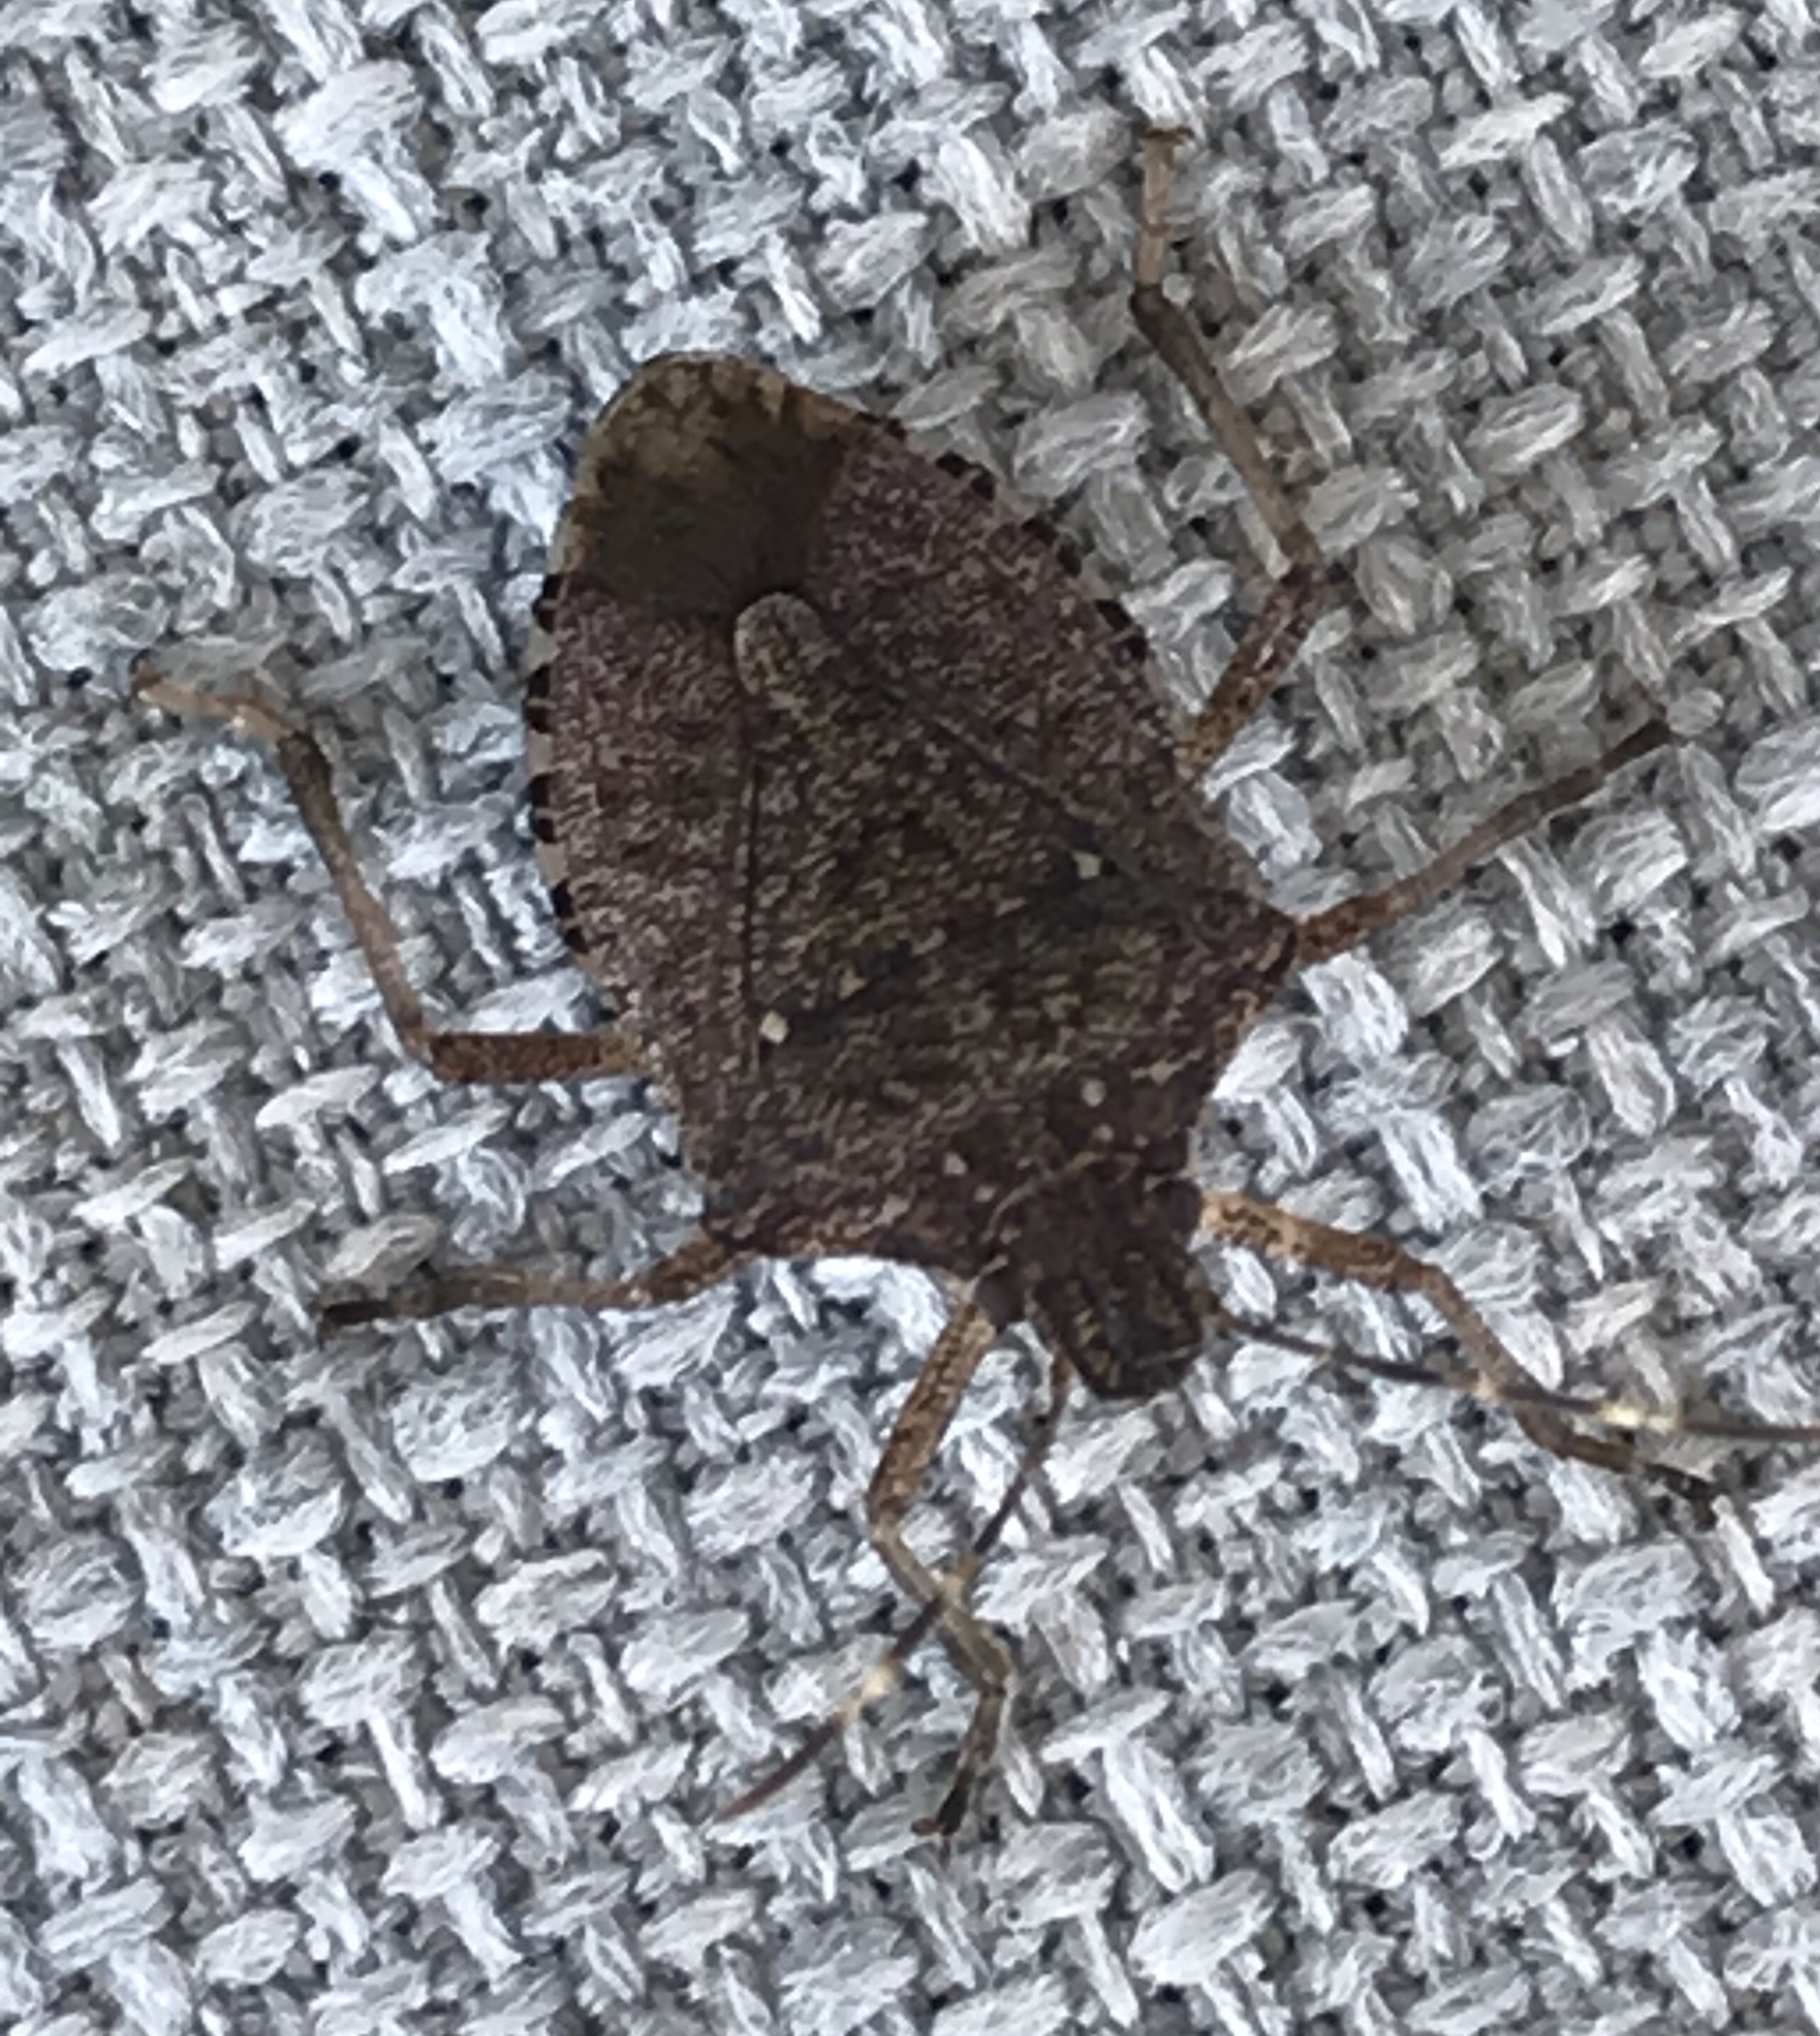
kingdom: Animalia
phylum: Arthropoda
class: Insecta
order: Hemiptera
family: Pentatomidae
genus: Halyomorpha
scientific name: Halyomorpha halys
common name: Brown marmorated stink bug
